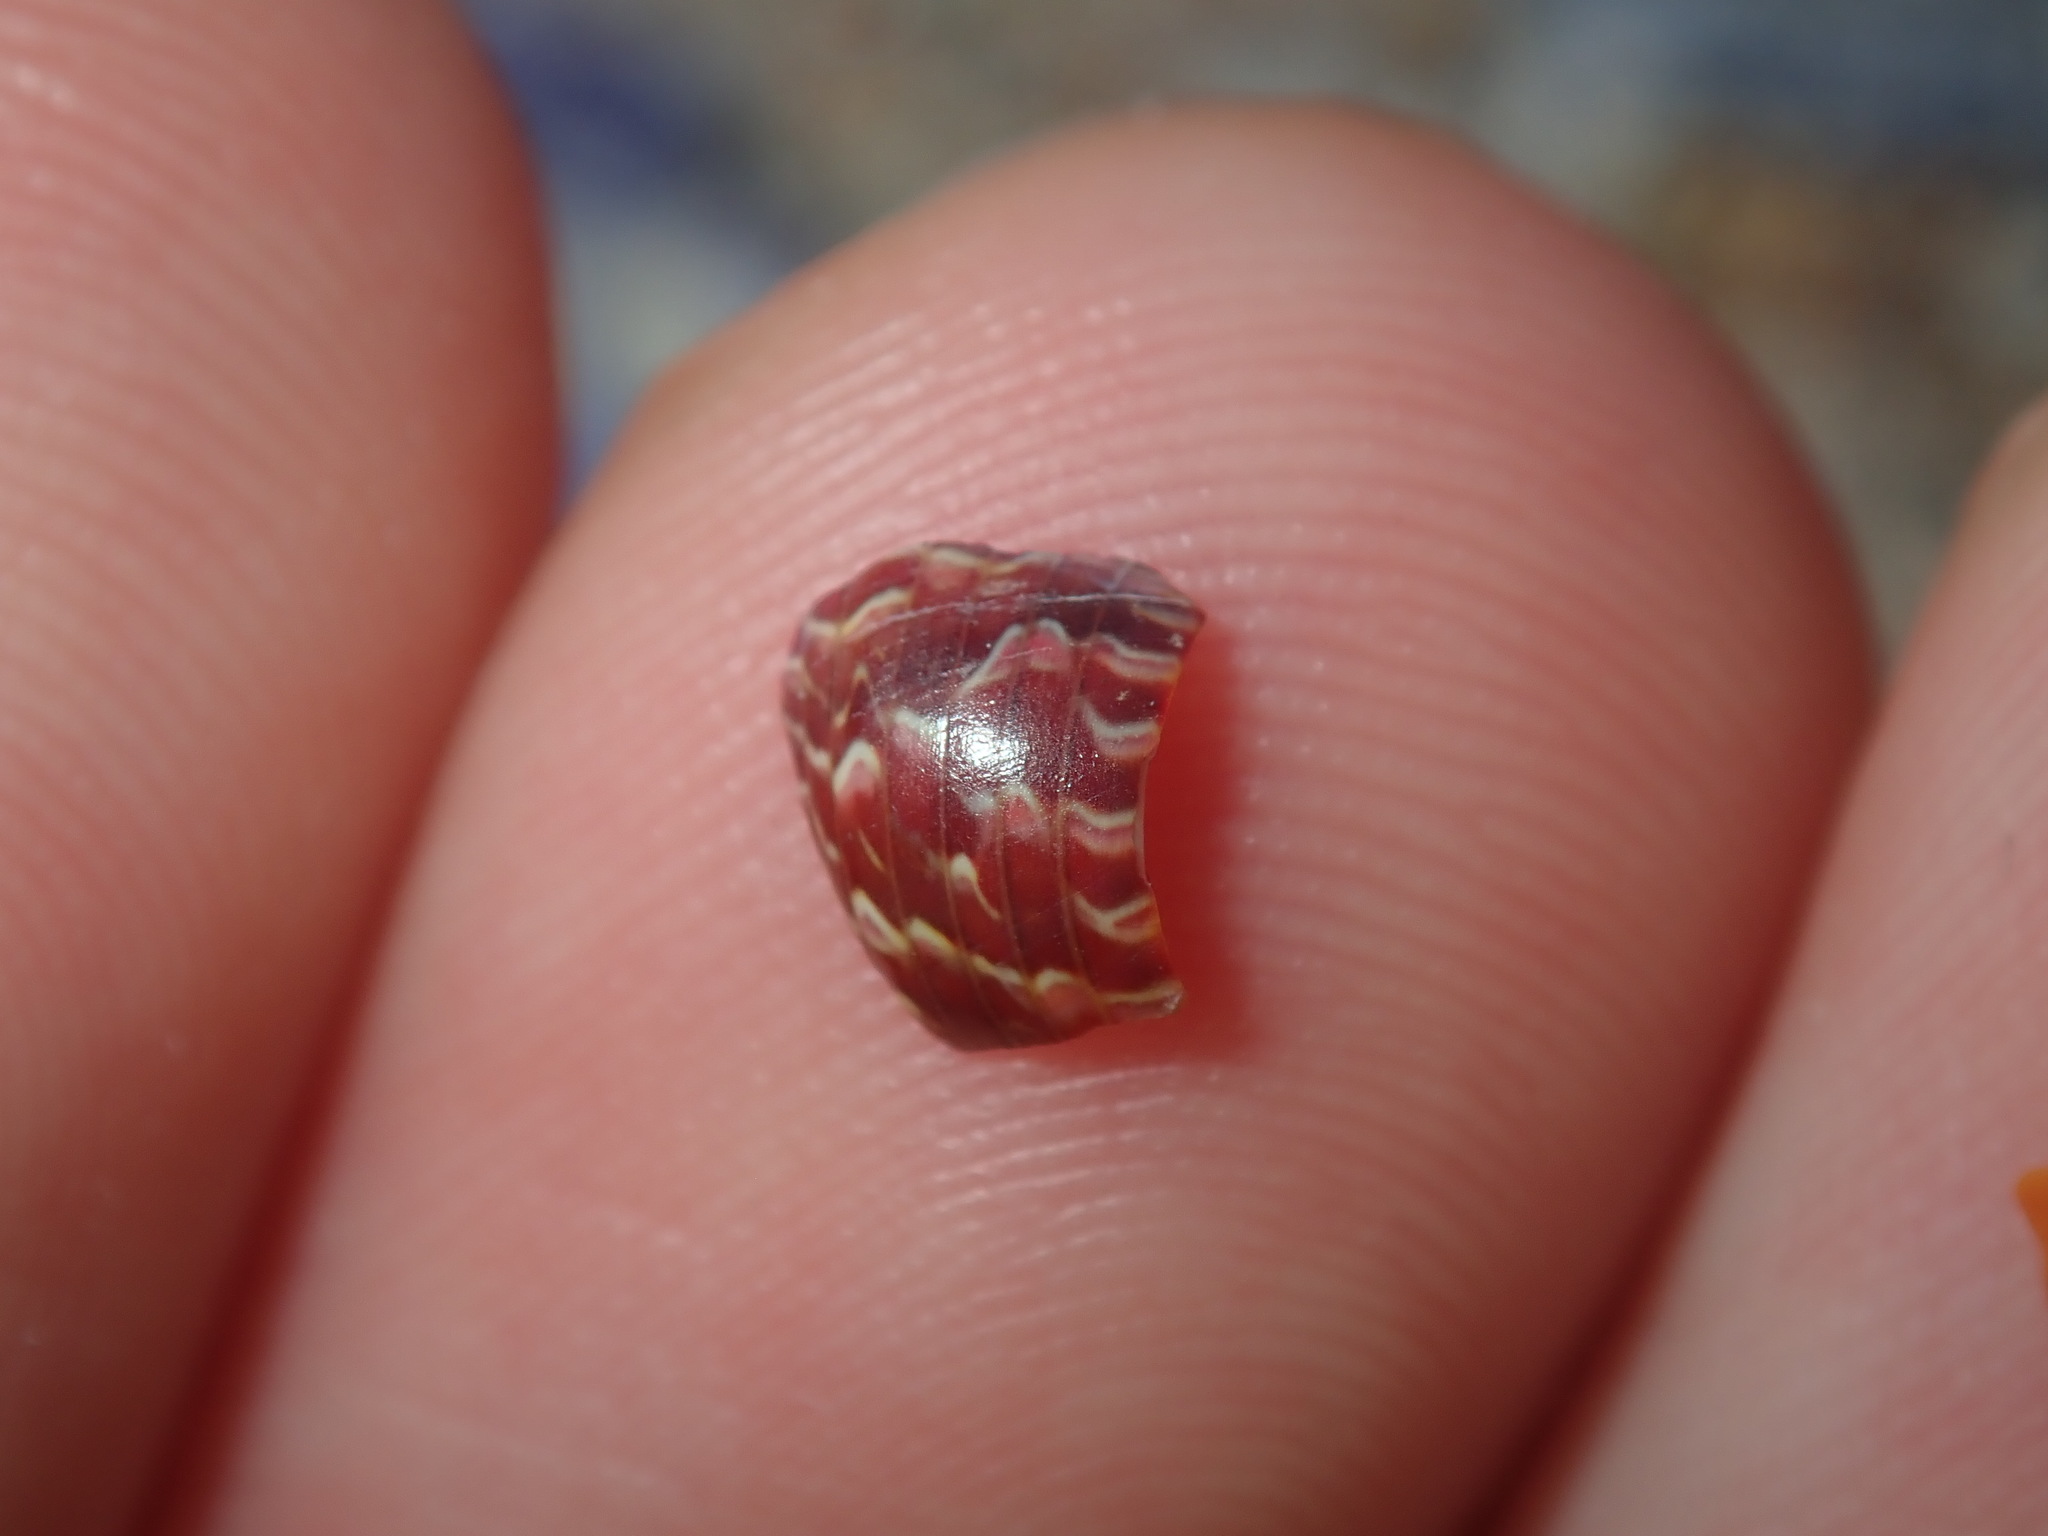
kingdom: Animalia
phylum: Mollusca
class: Gastropoda
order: Trochida
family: Trochidae
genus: Phasianotrochus
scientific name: Phasianotrochus eximius
